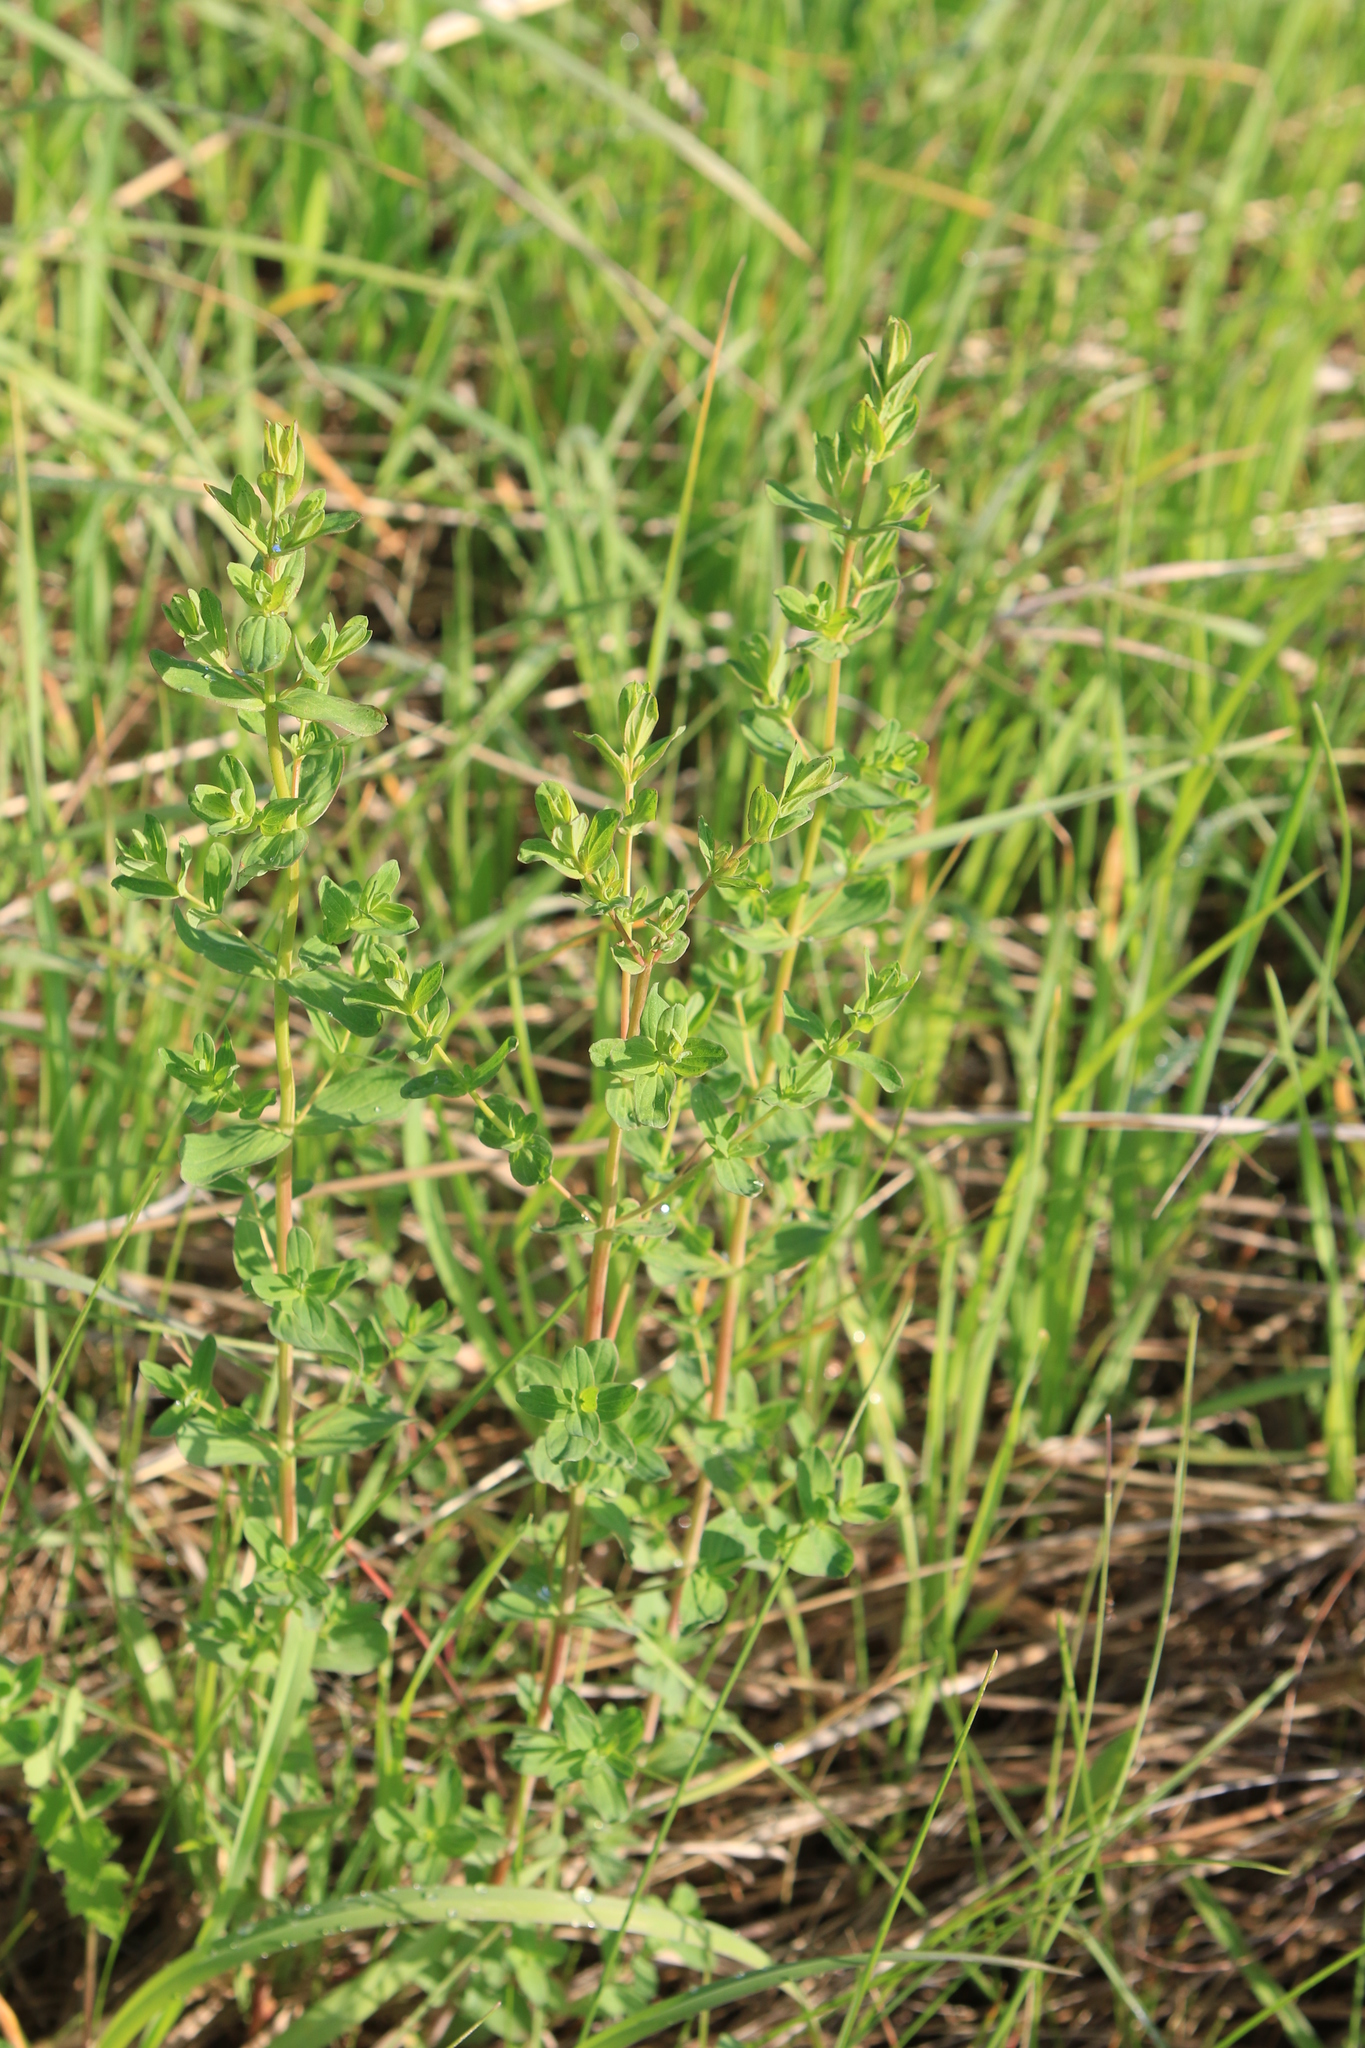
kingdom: Plantae
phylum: Tracheophyta
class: Magnoliopsida
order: Malpighiales
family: Hypericaceae
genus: Hypericum
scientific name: Hypericum perforatum
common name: Common st. johnswort
